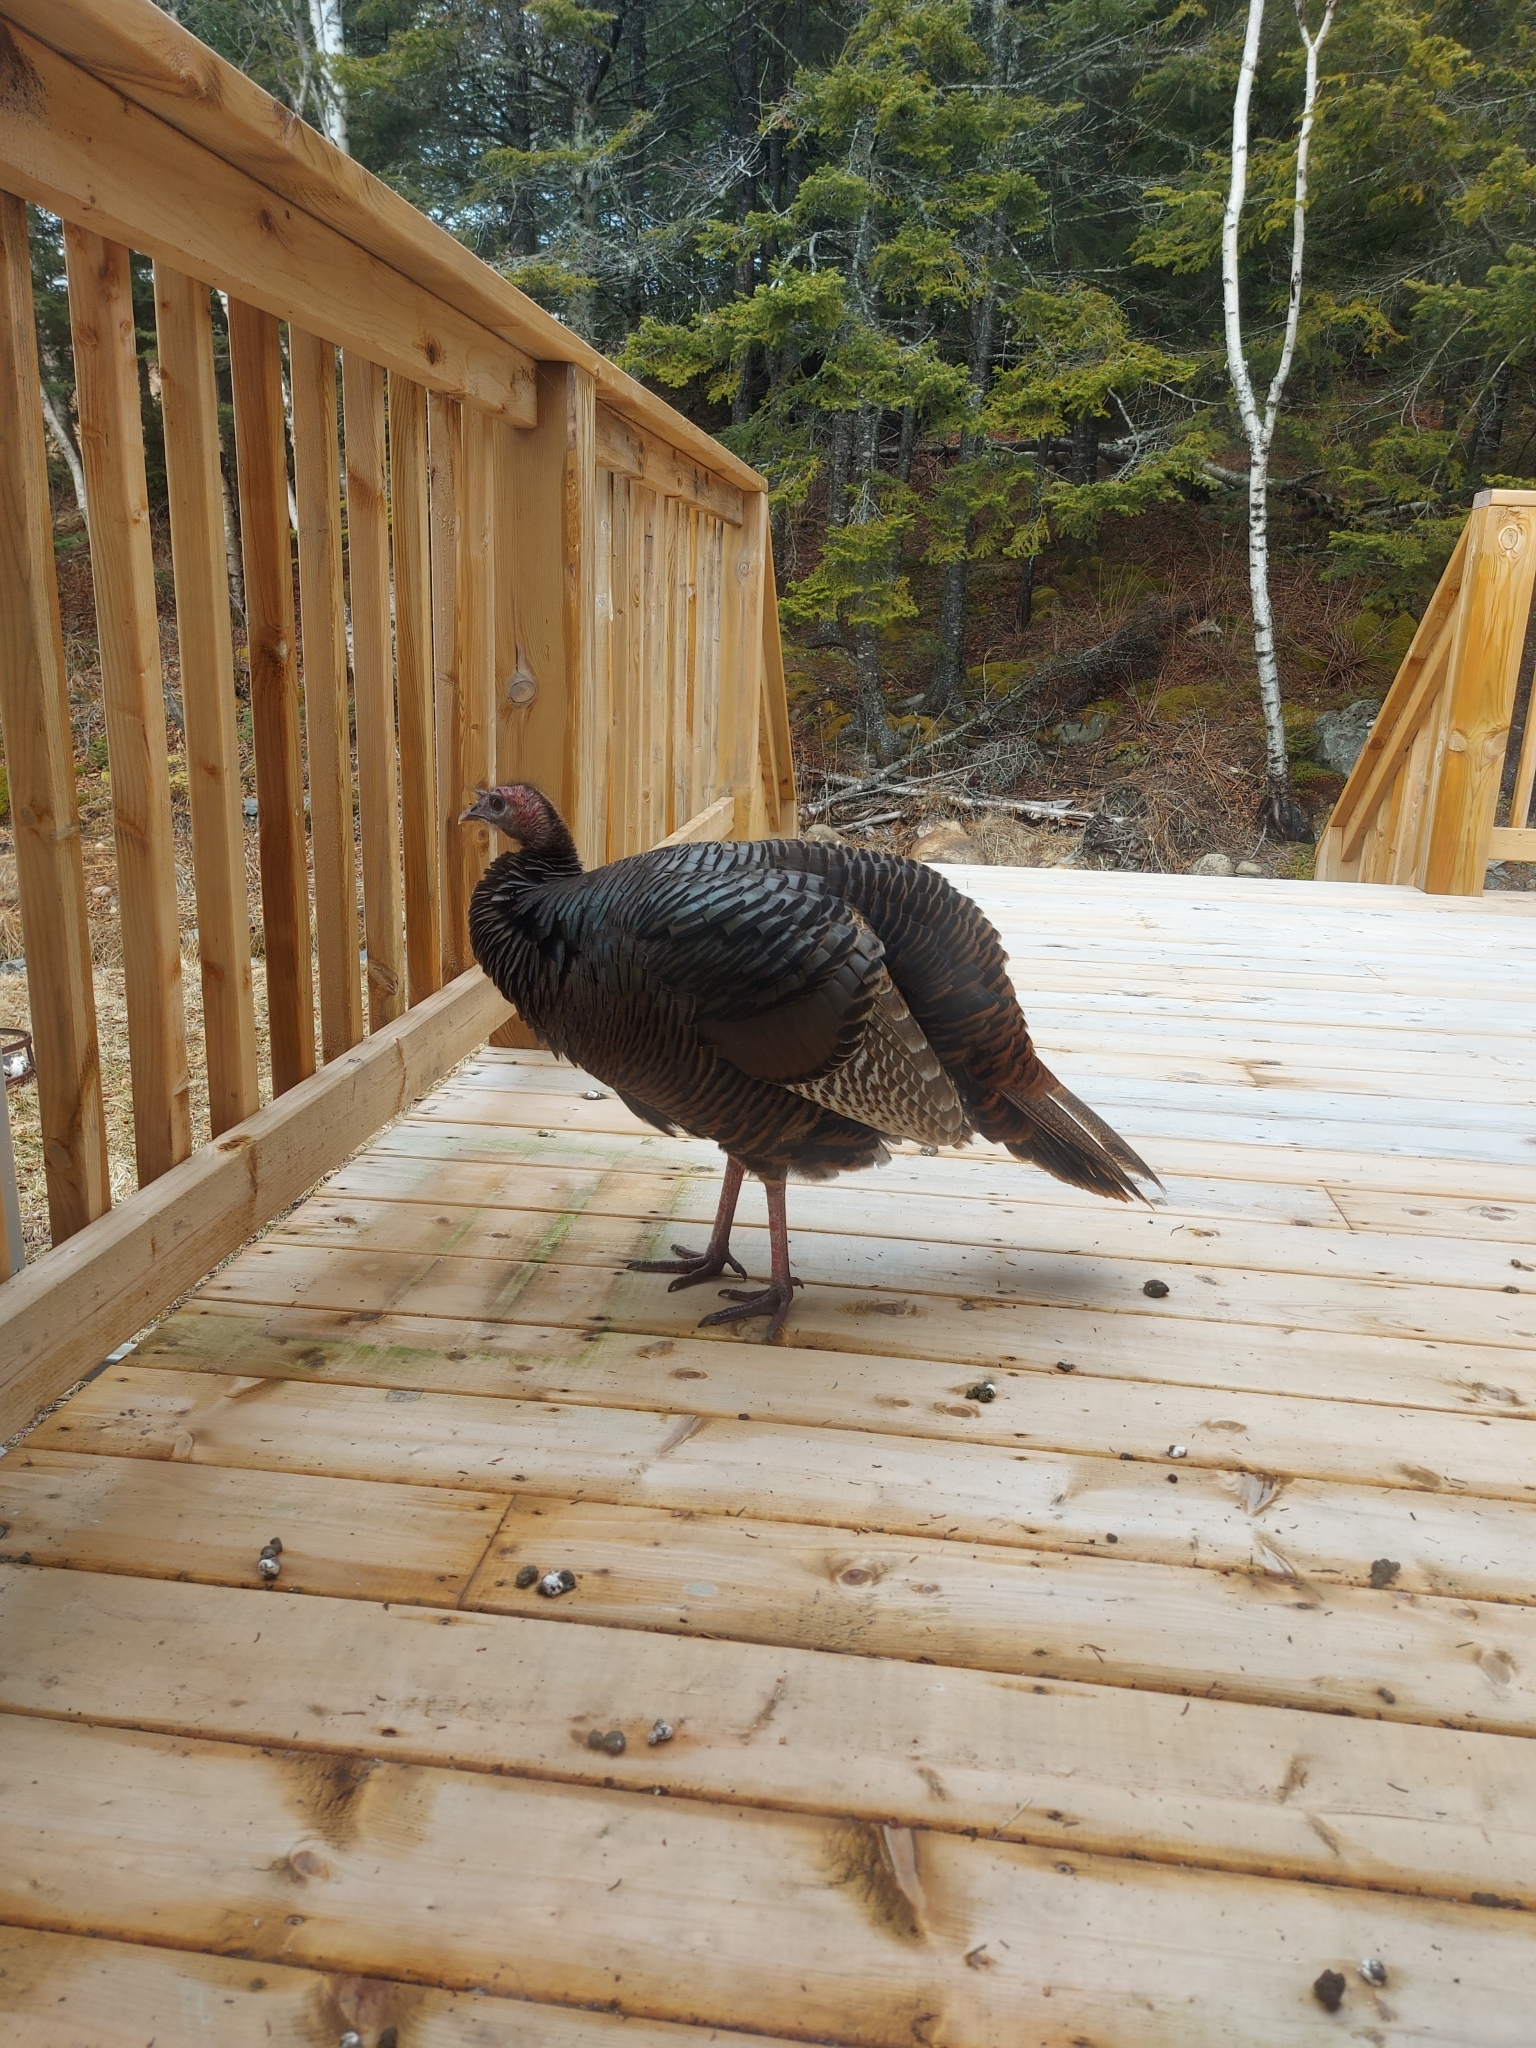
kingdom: Animalia
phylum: Chordata
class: Aves
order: Galliformes
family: Phasianidae
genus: Meleagris
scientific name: Meleagris gallopavo
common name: Wild turkey
